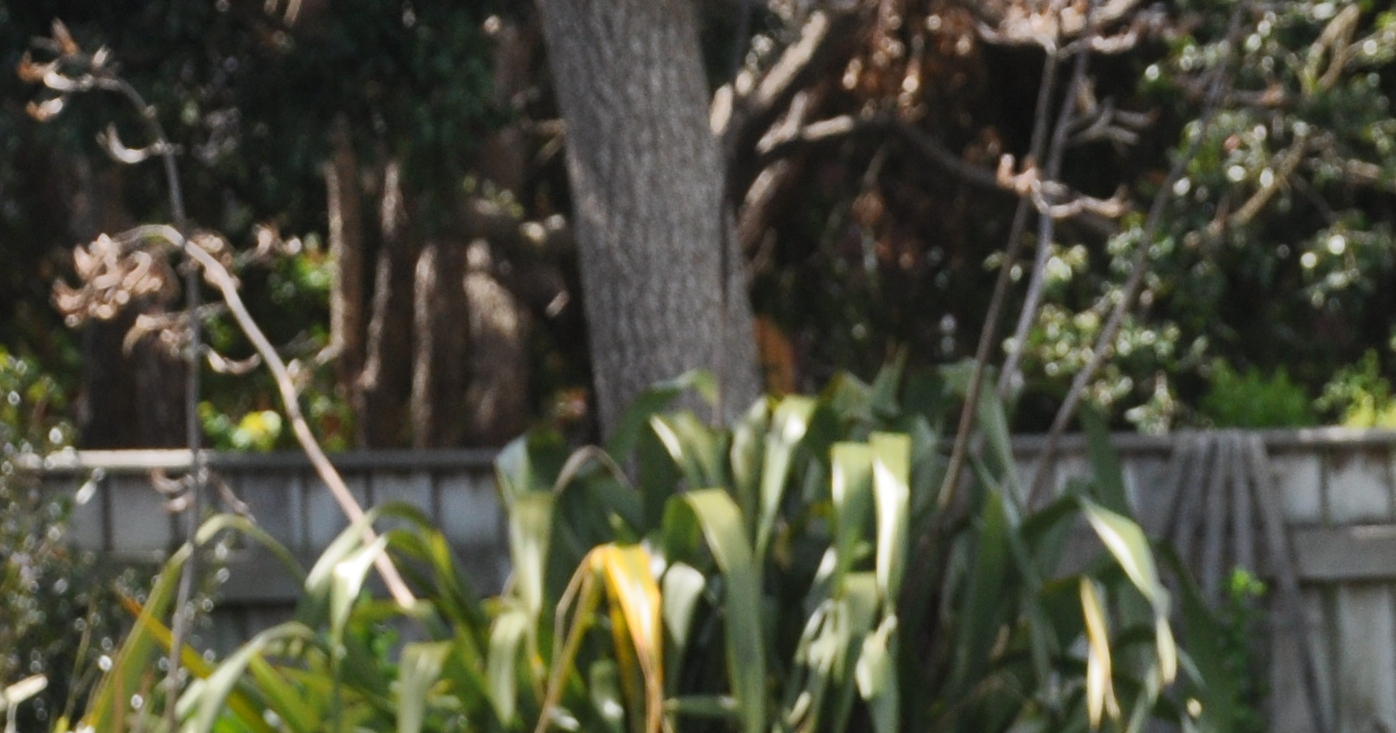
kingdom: Plantae
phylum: Tracheophyta
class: Liliopsida
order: Asparagales
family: Asphodelaceae
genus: Phormium
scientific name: Phormium tenax
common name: New zealand flax
